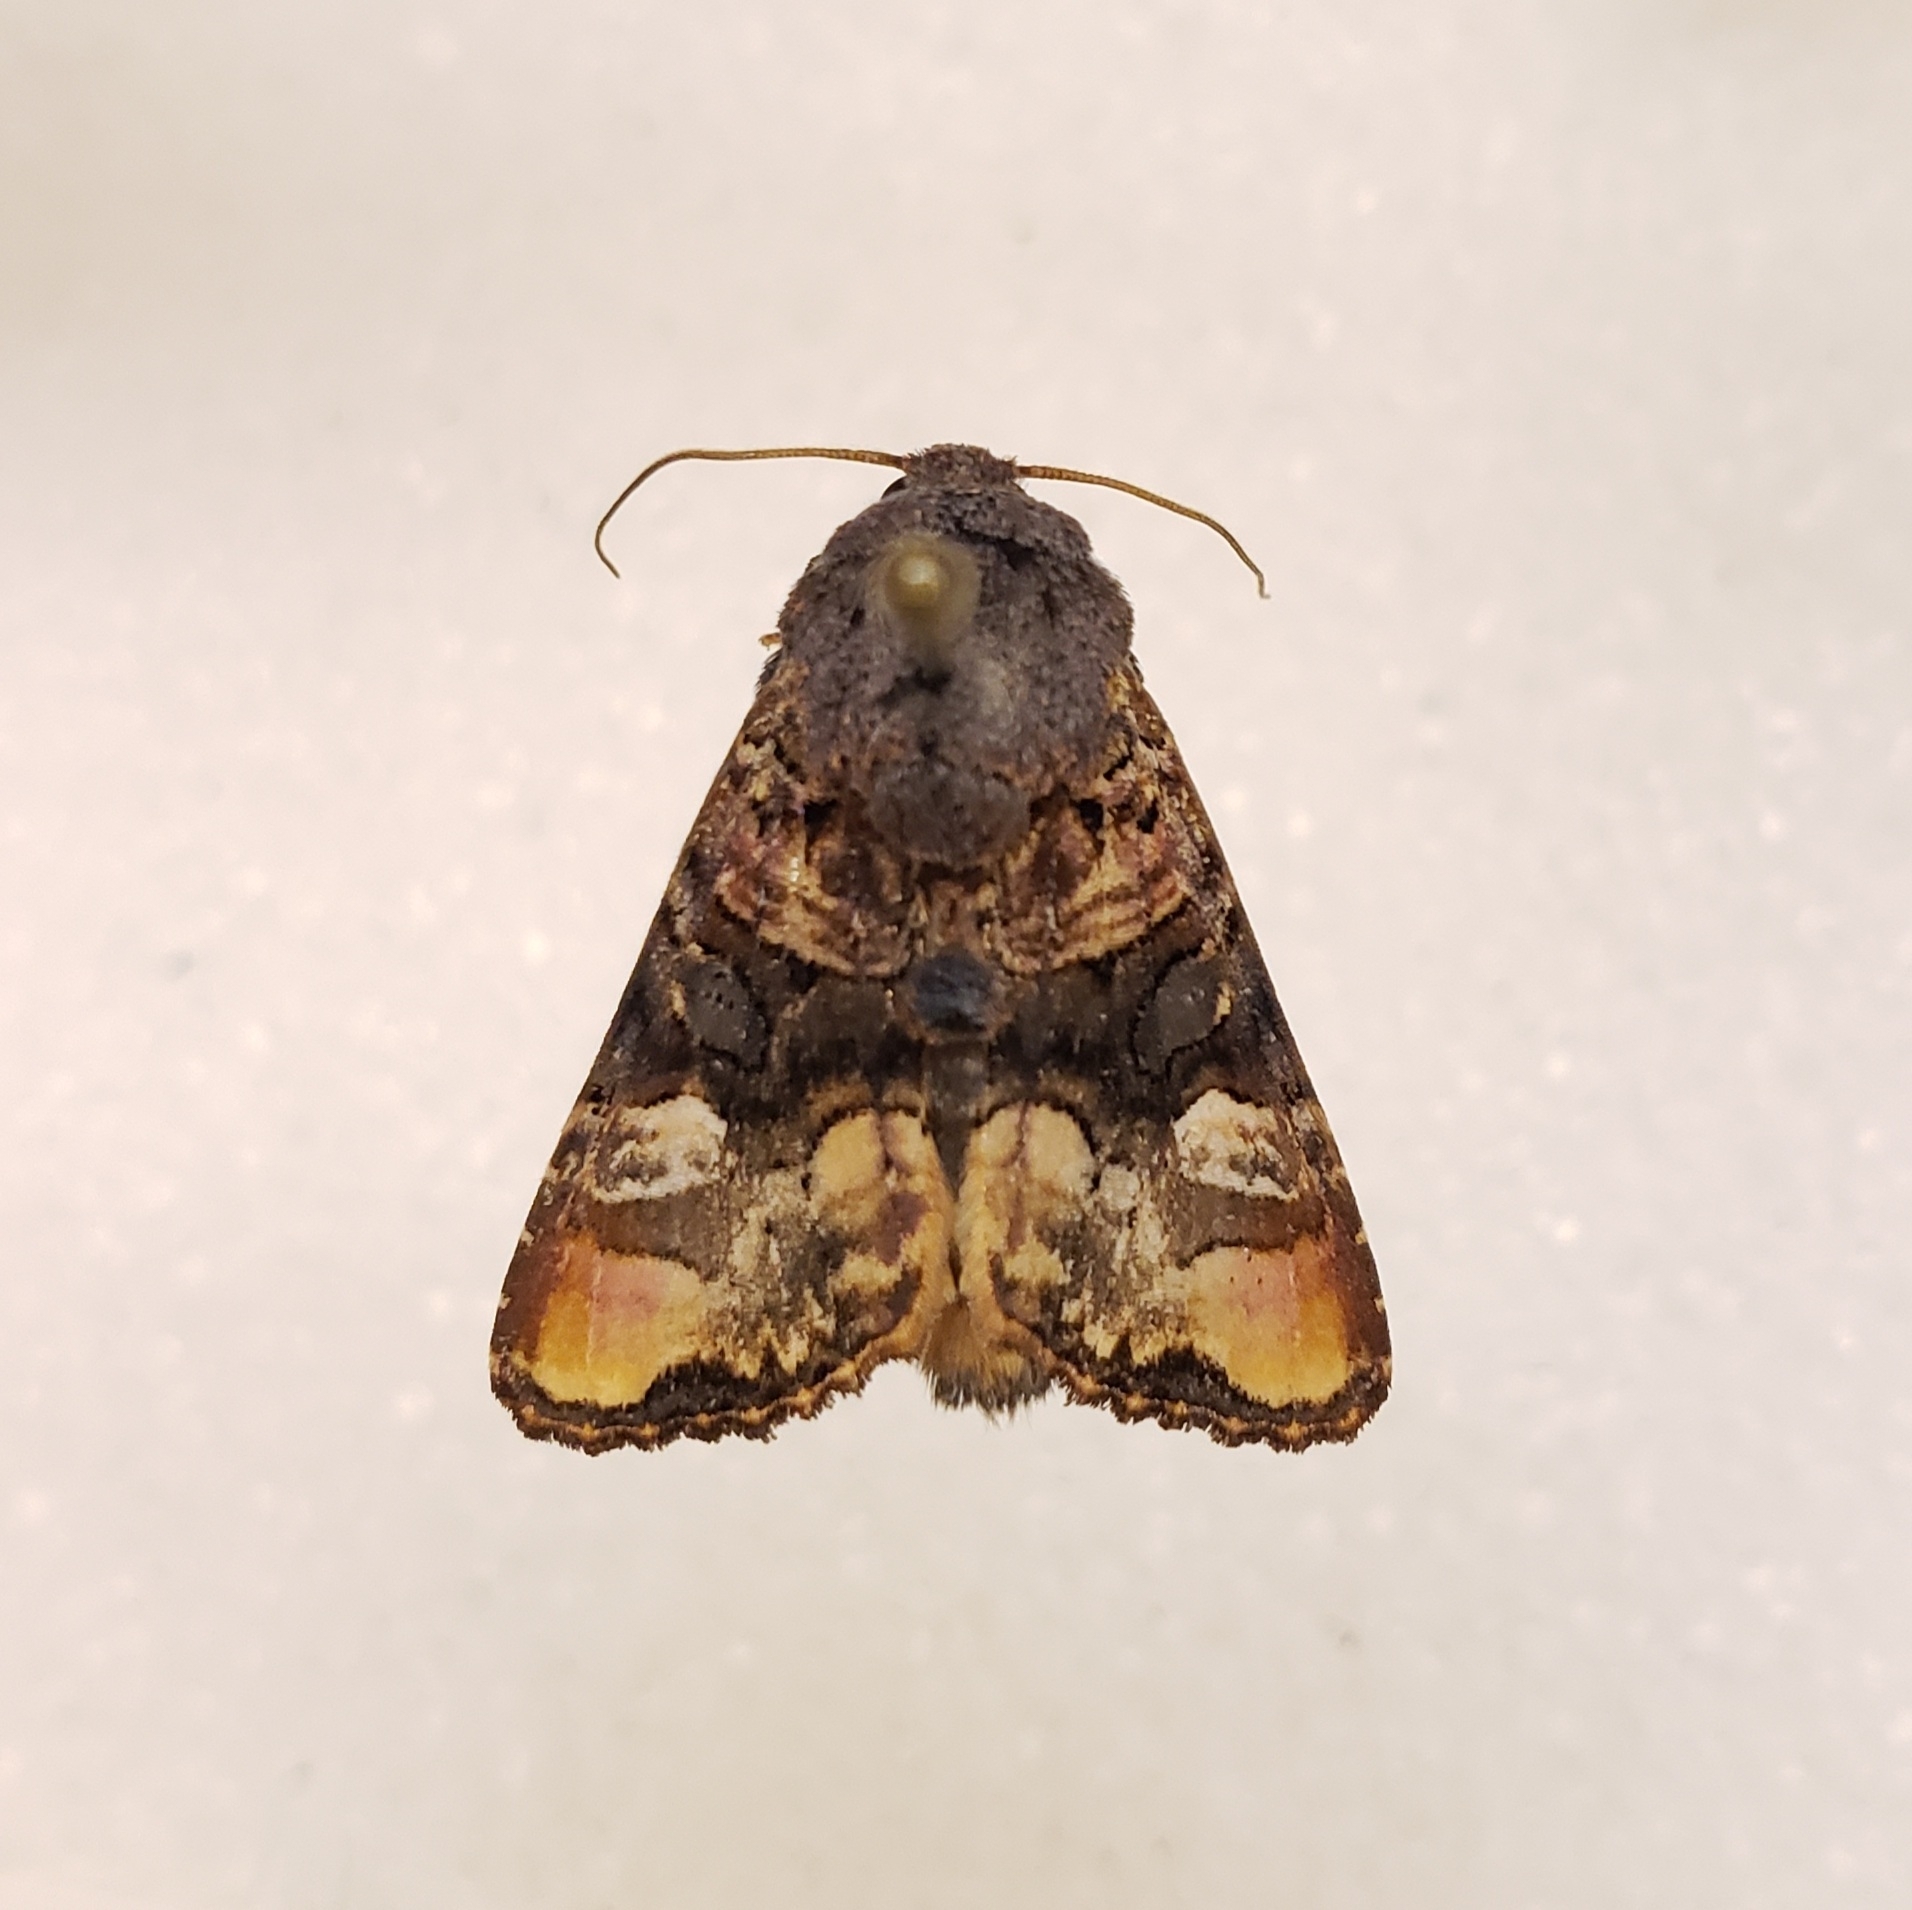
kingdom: Animalia
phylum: Arthropoda
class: Insecta
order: Lepidoptera
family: Noctuidae
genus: Euplexia
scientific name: Euplexia triplaga
